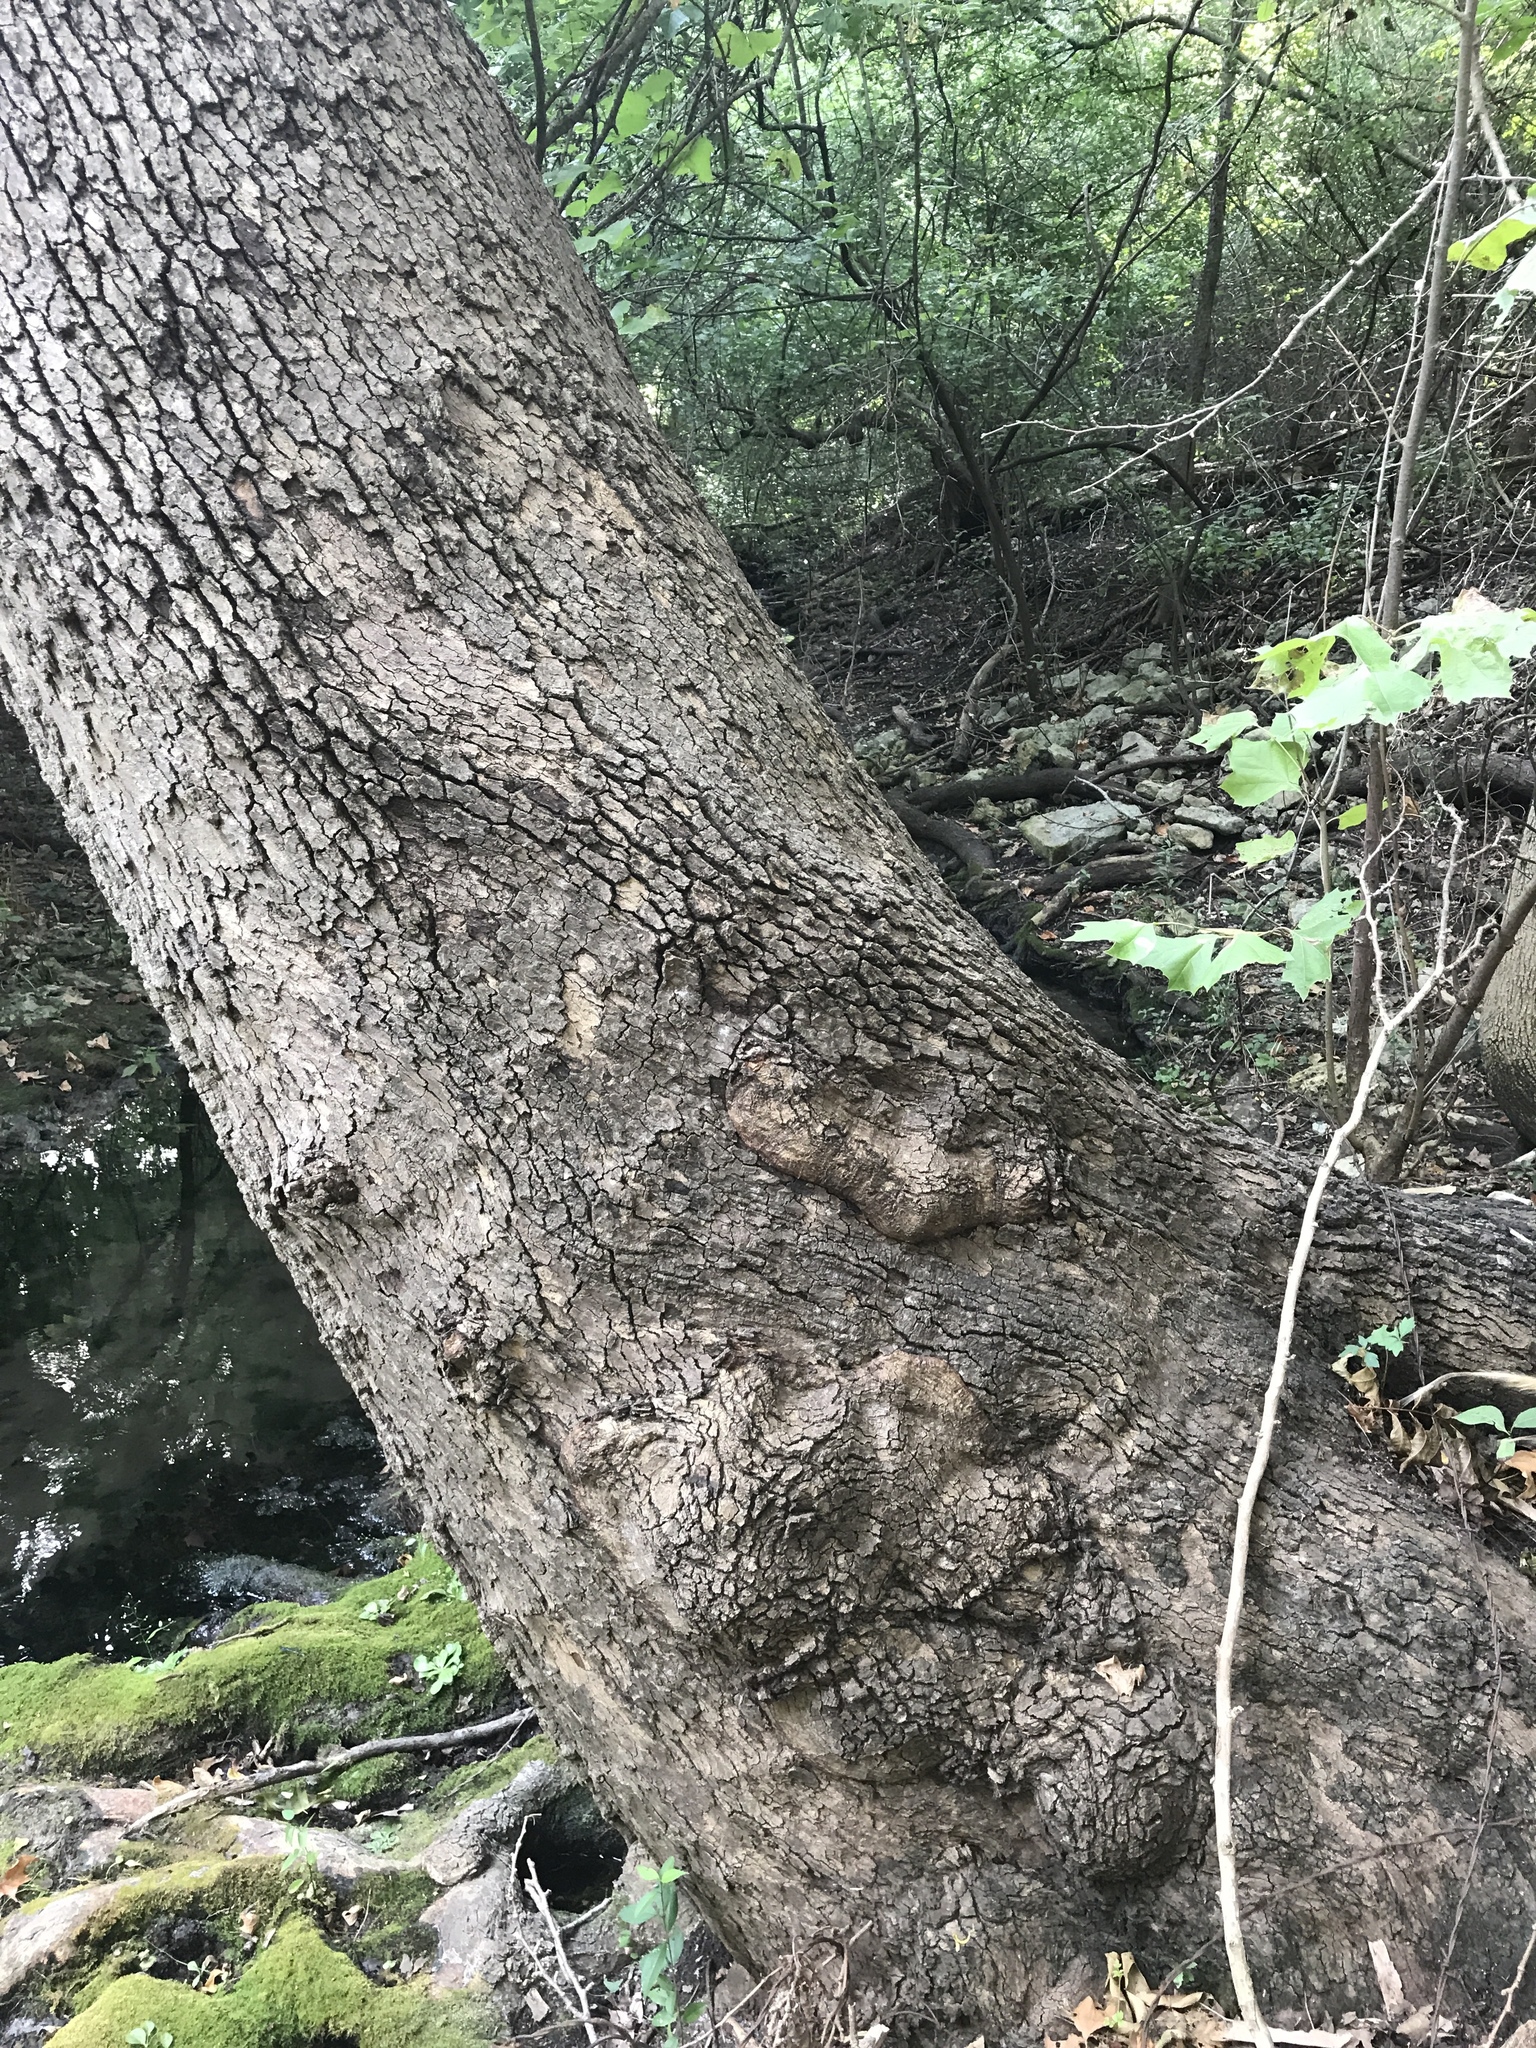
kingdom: Plantae
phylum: Tracheophyta
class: Magnoliopsida
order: Proteales
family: Platanaceae
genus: Platanus
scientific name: Platanus occidentalis
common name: American sycamore
